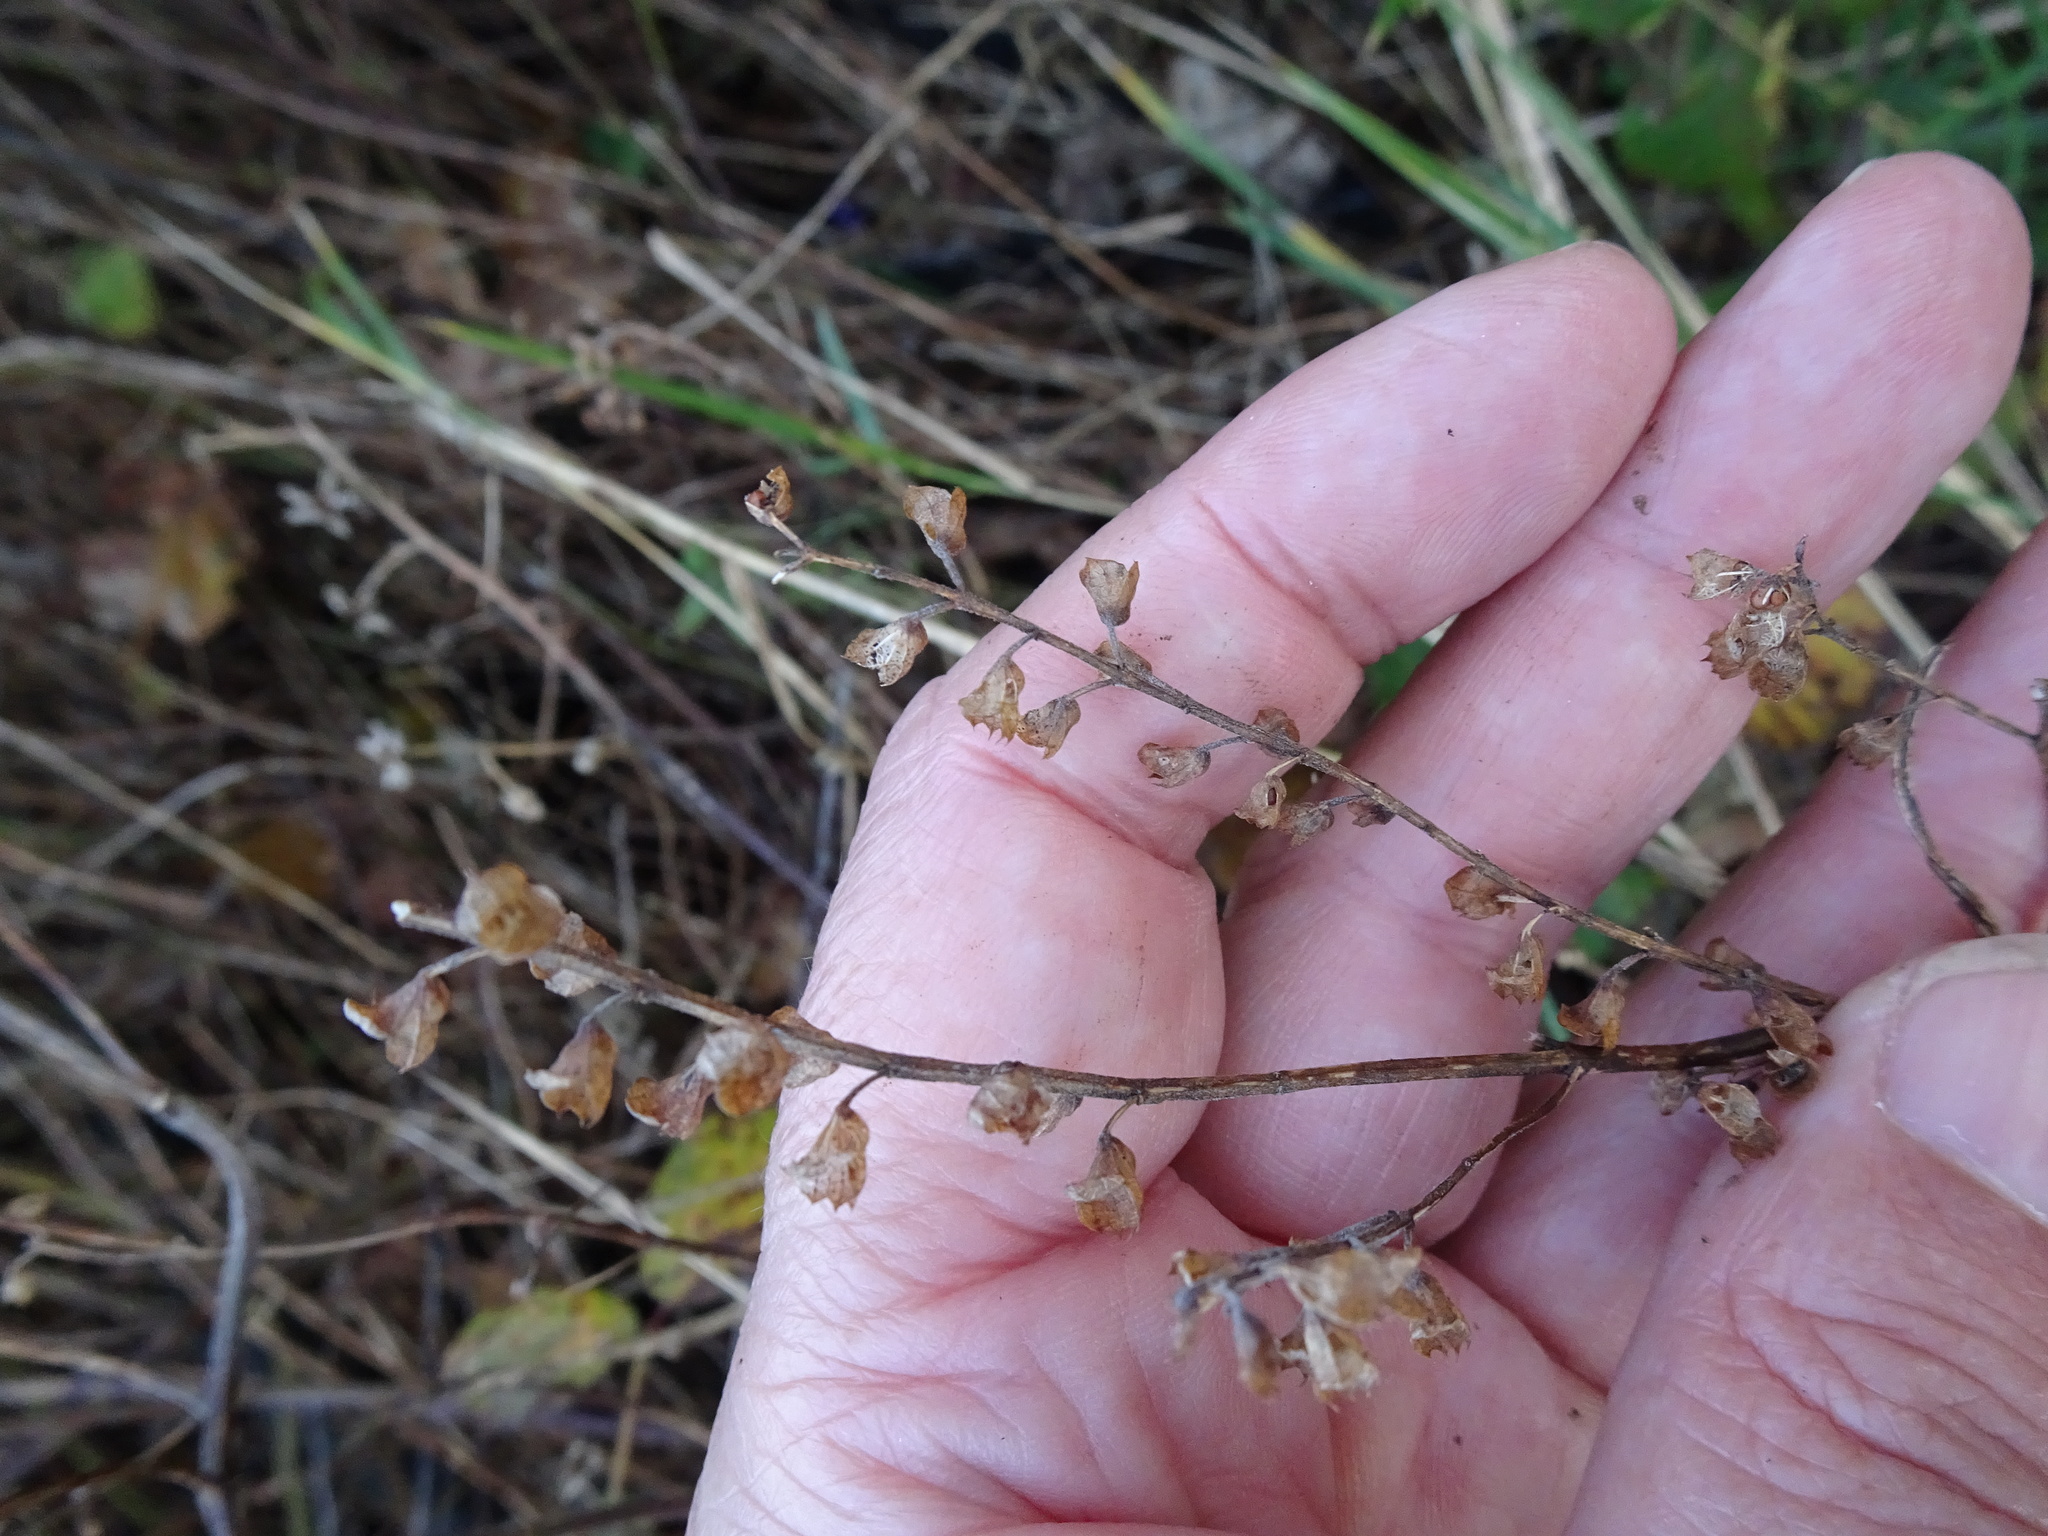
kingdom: Plantae
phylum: Tracheophyta
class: Magnoliopsida
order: Lamiales
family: Lamiaceae
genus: Teucrium
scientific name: Teucrium scorodonia
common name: Woodland germander
